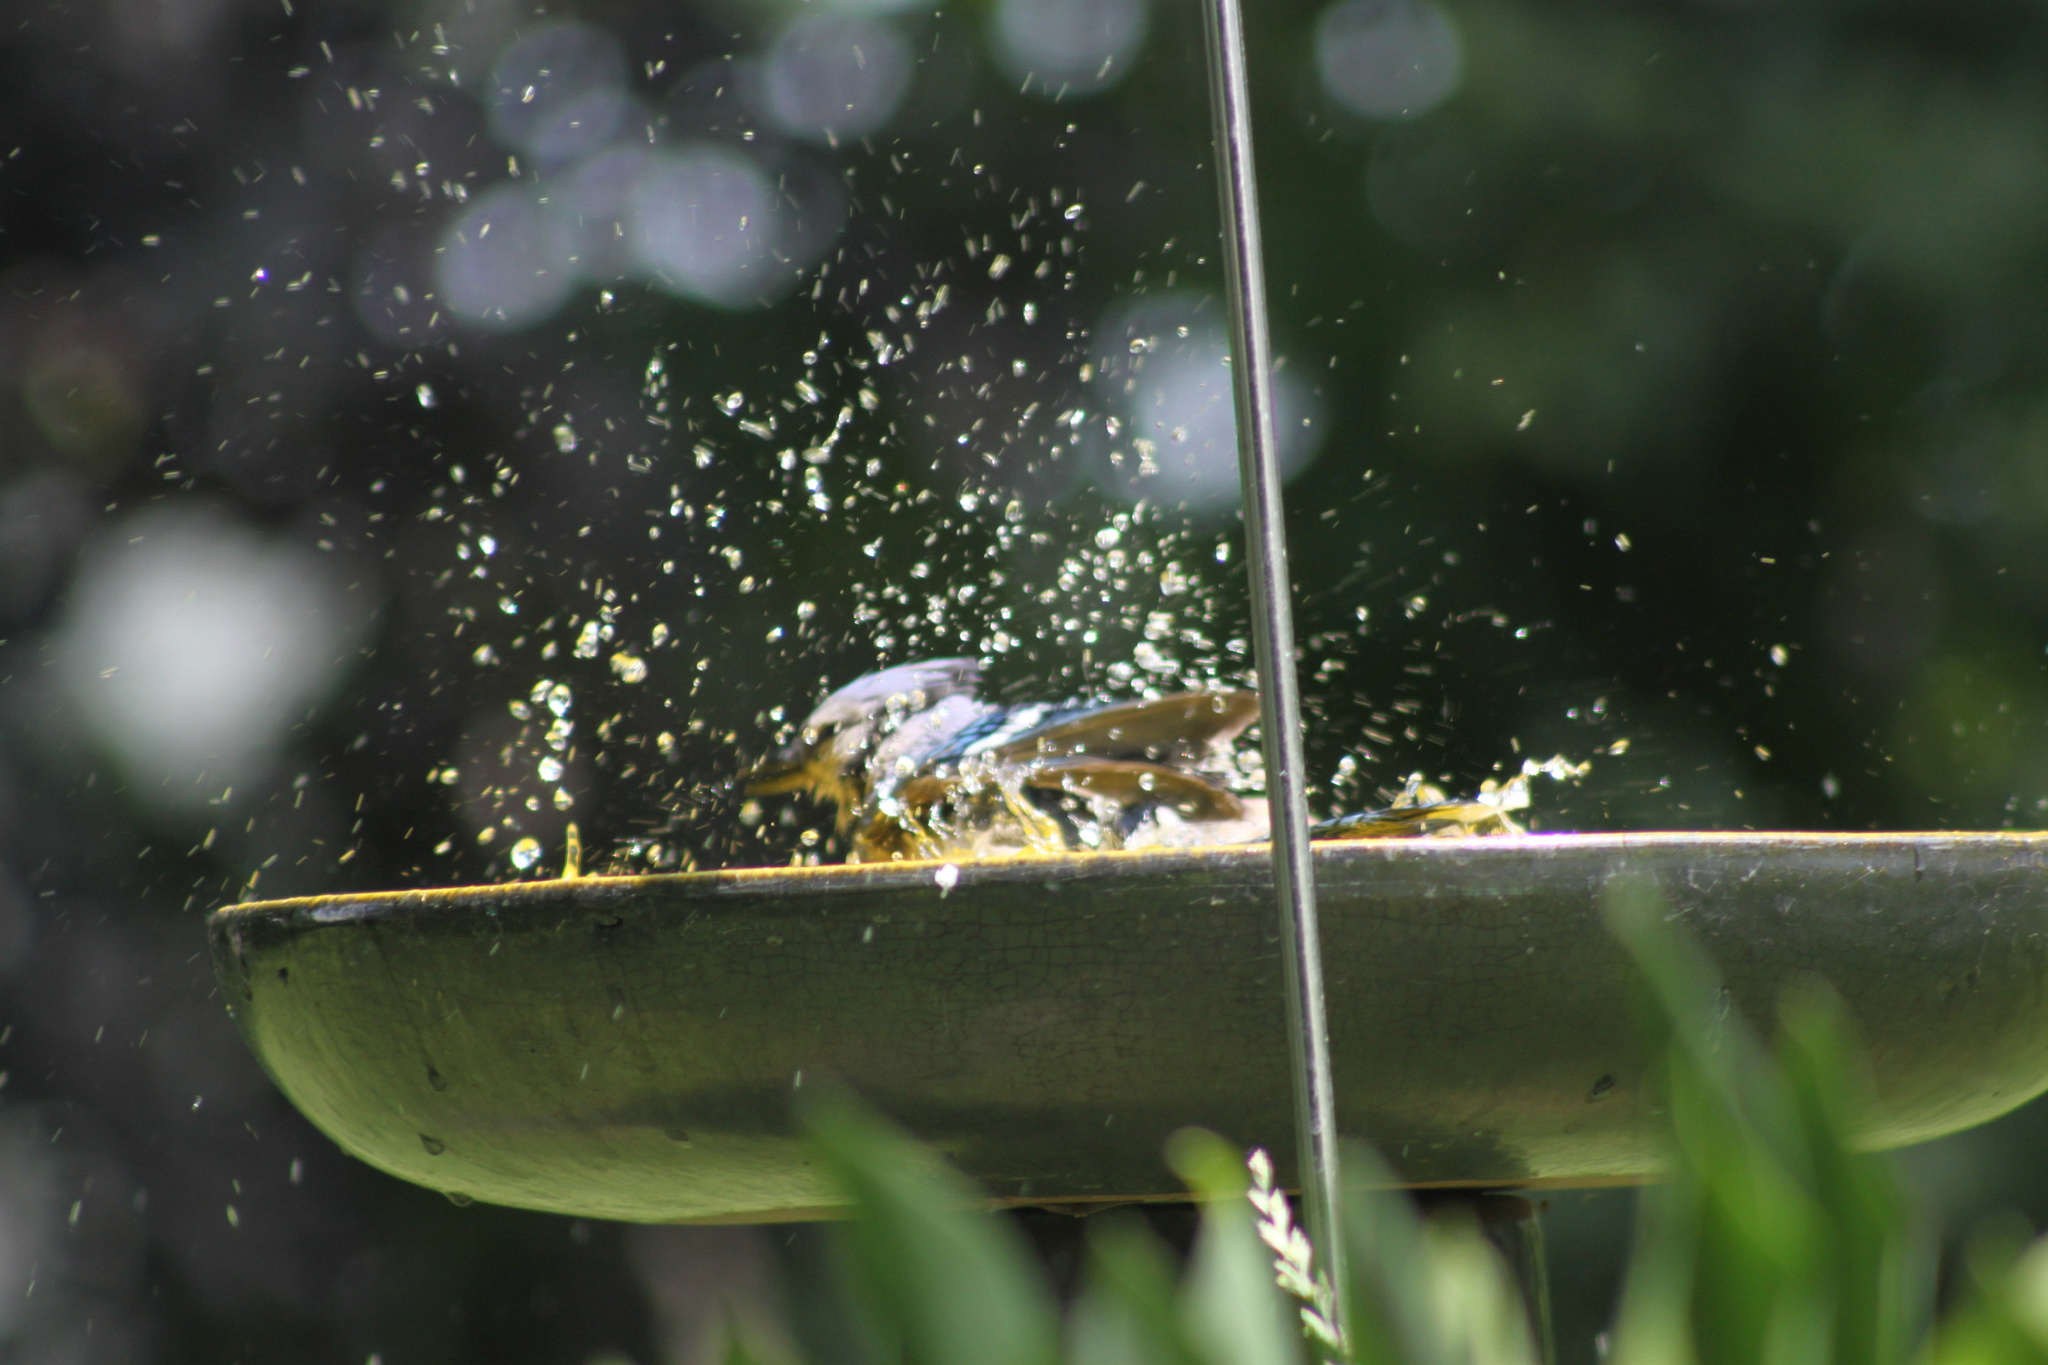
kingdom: Animalia
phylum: Chordata
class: Aves
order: Passeriformes
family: Corvidae
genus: Cyanocitta
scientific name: Cyanocitta cristata
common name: Blue jay
